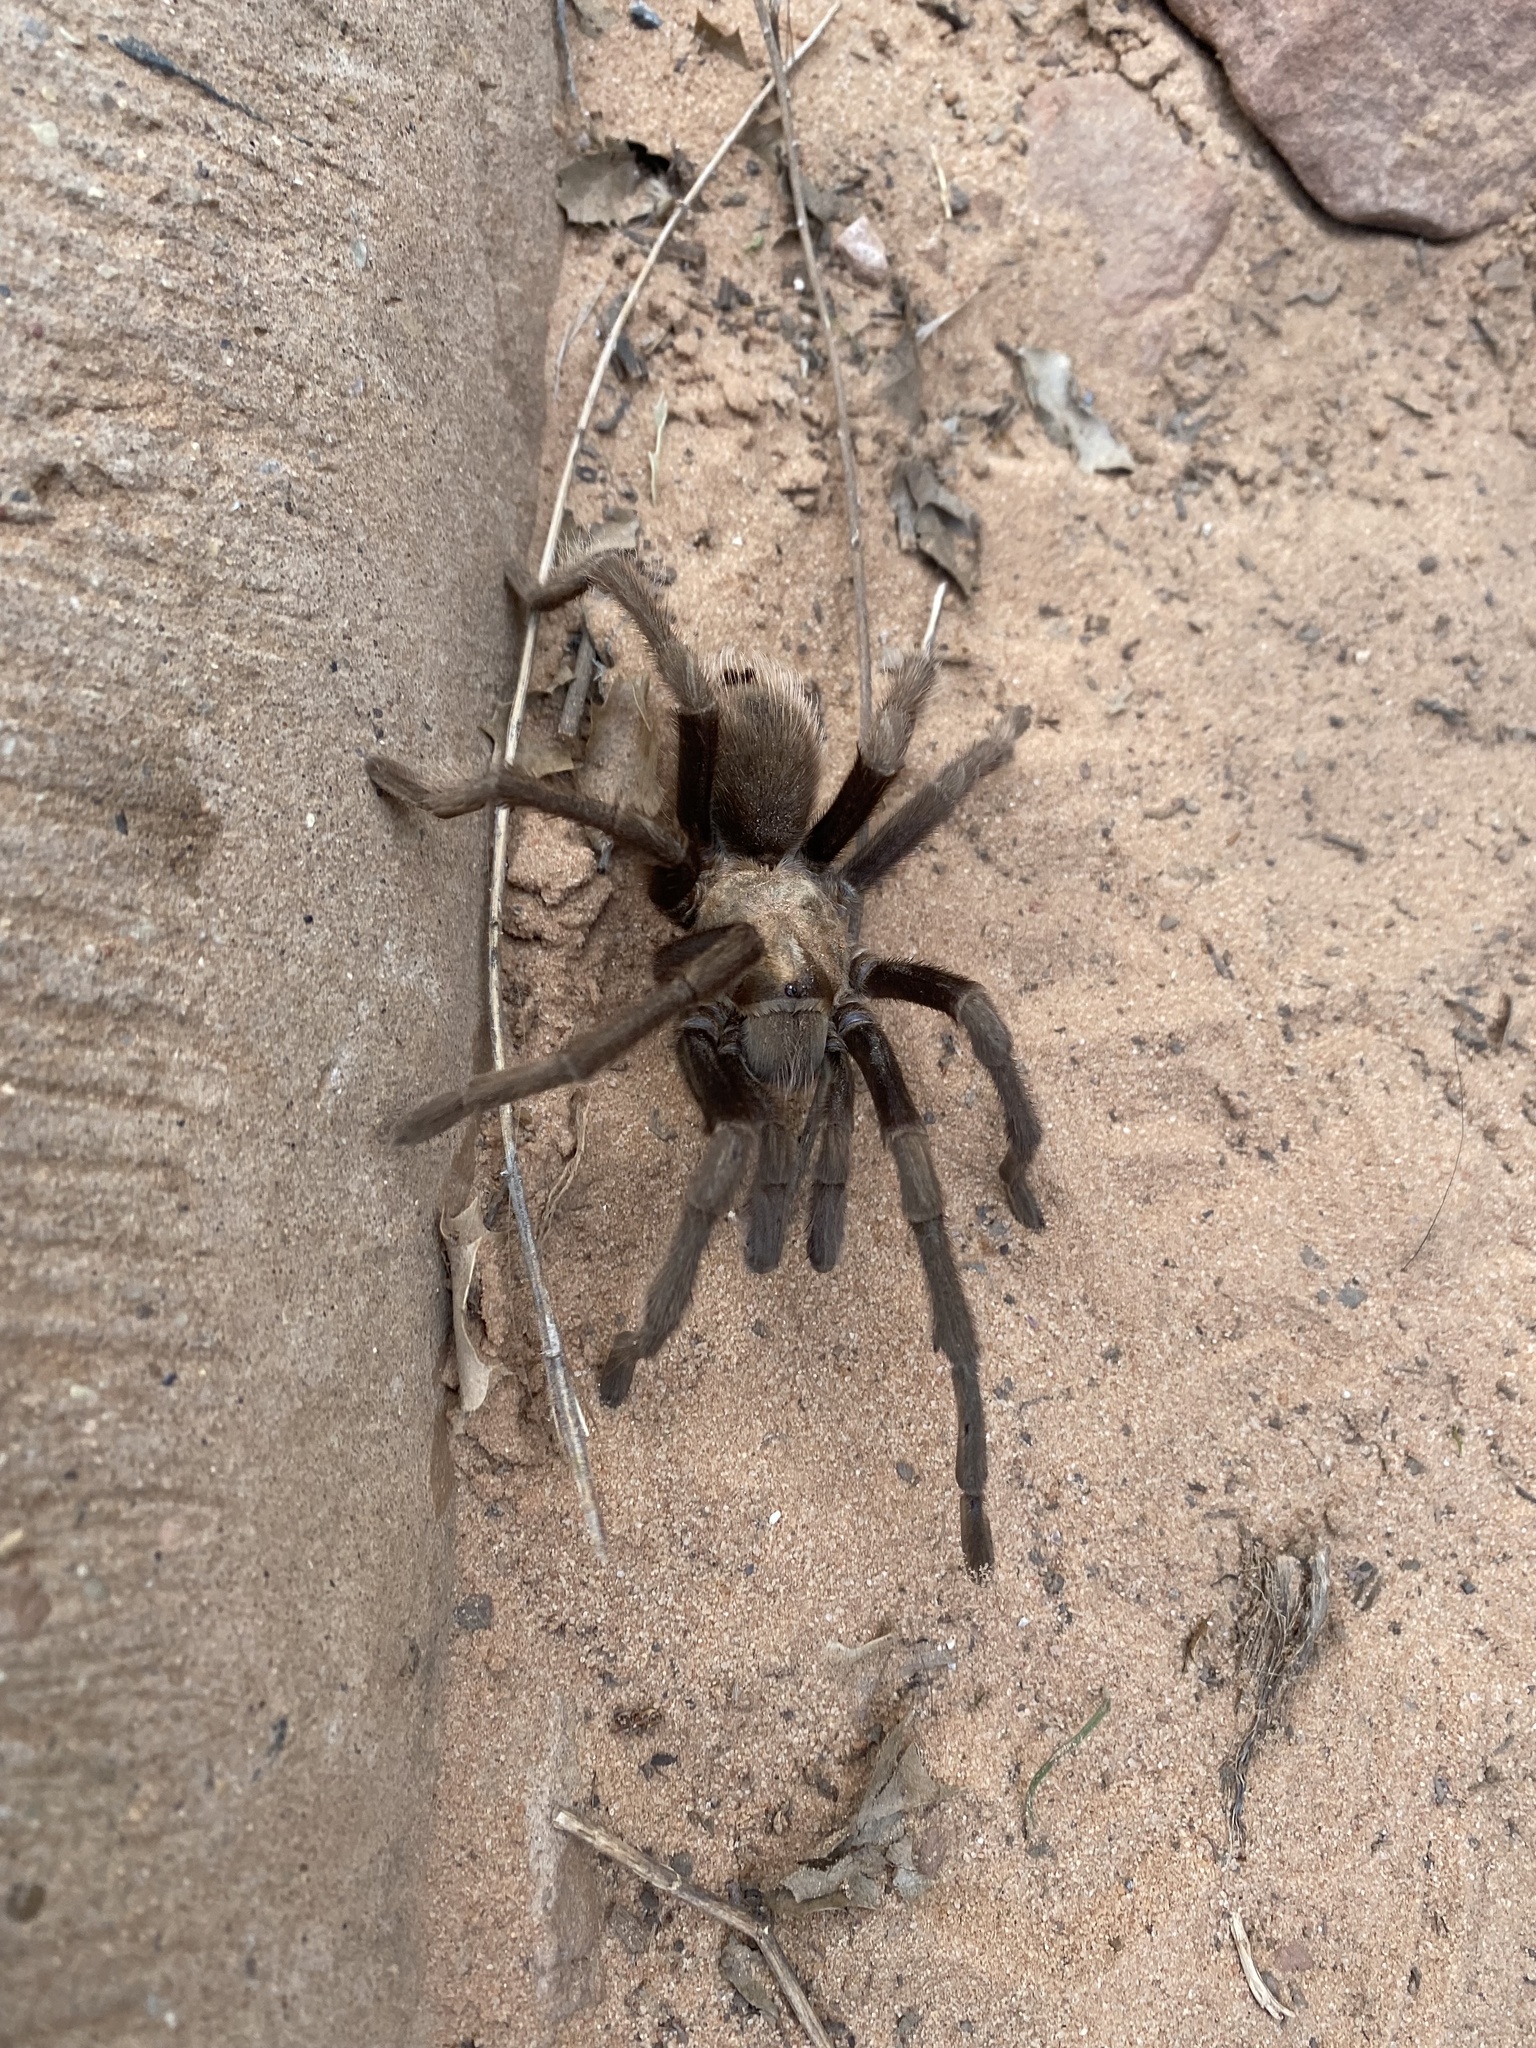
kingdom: Animalia
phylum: Arthropoda
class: Arachnida
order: Araneae
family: Theraphosidae
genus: Aphonopelma
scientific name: Aphonopelma iodius
